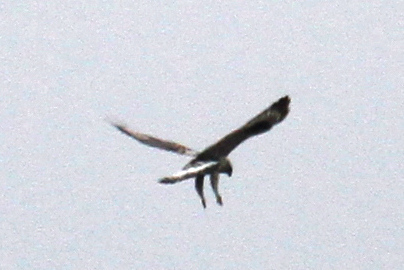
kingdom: Animalia
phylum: Chordata
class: Aves
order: Accipitriformes
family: Accipitridae
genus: Buteo
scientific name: Buteo lagopus
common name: Rough-legged buzzard
